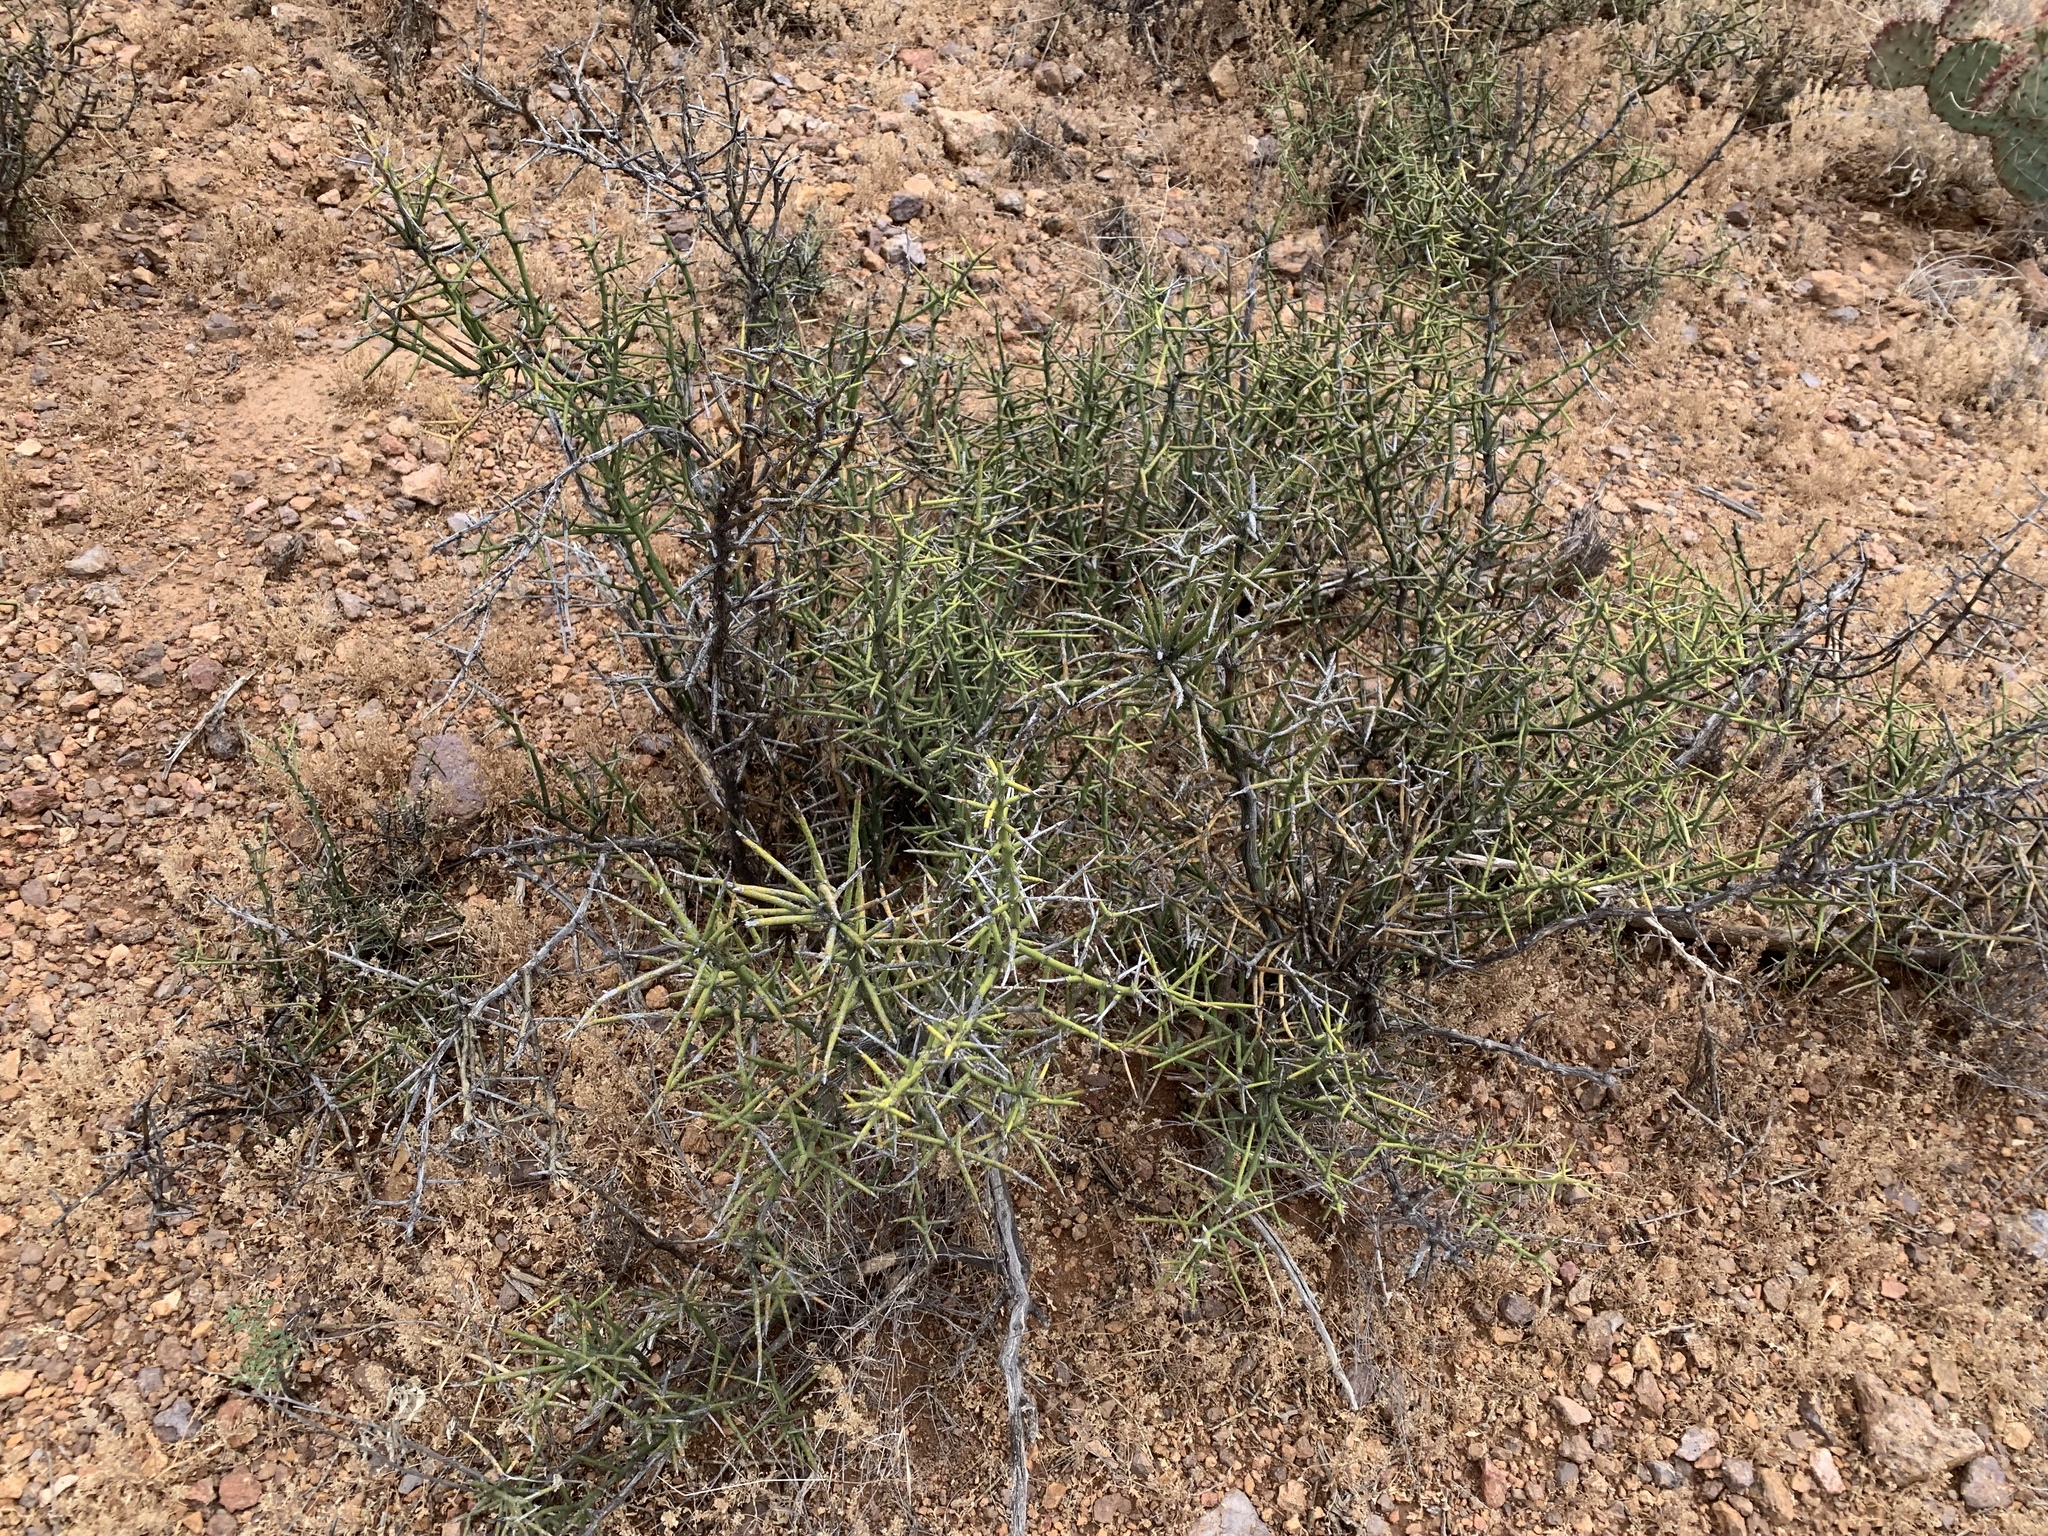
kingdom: Plantae
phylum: Tracheophyta
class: Magnoliopsida
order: Brassicales
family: Koeberliniaceae
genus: Koeberlinia
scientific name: Koeberlinia spinosa
